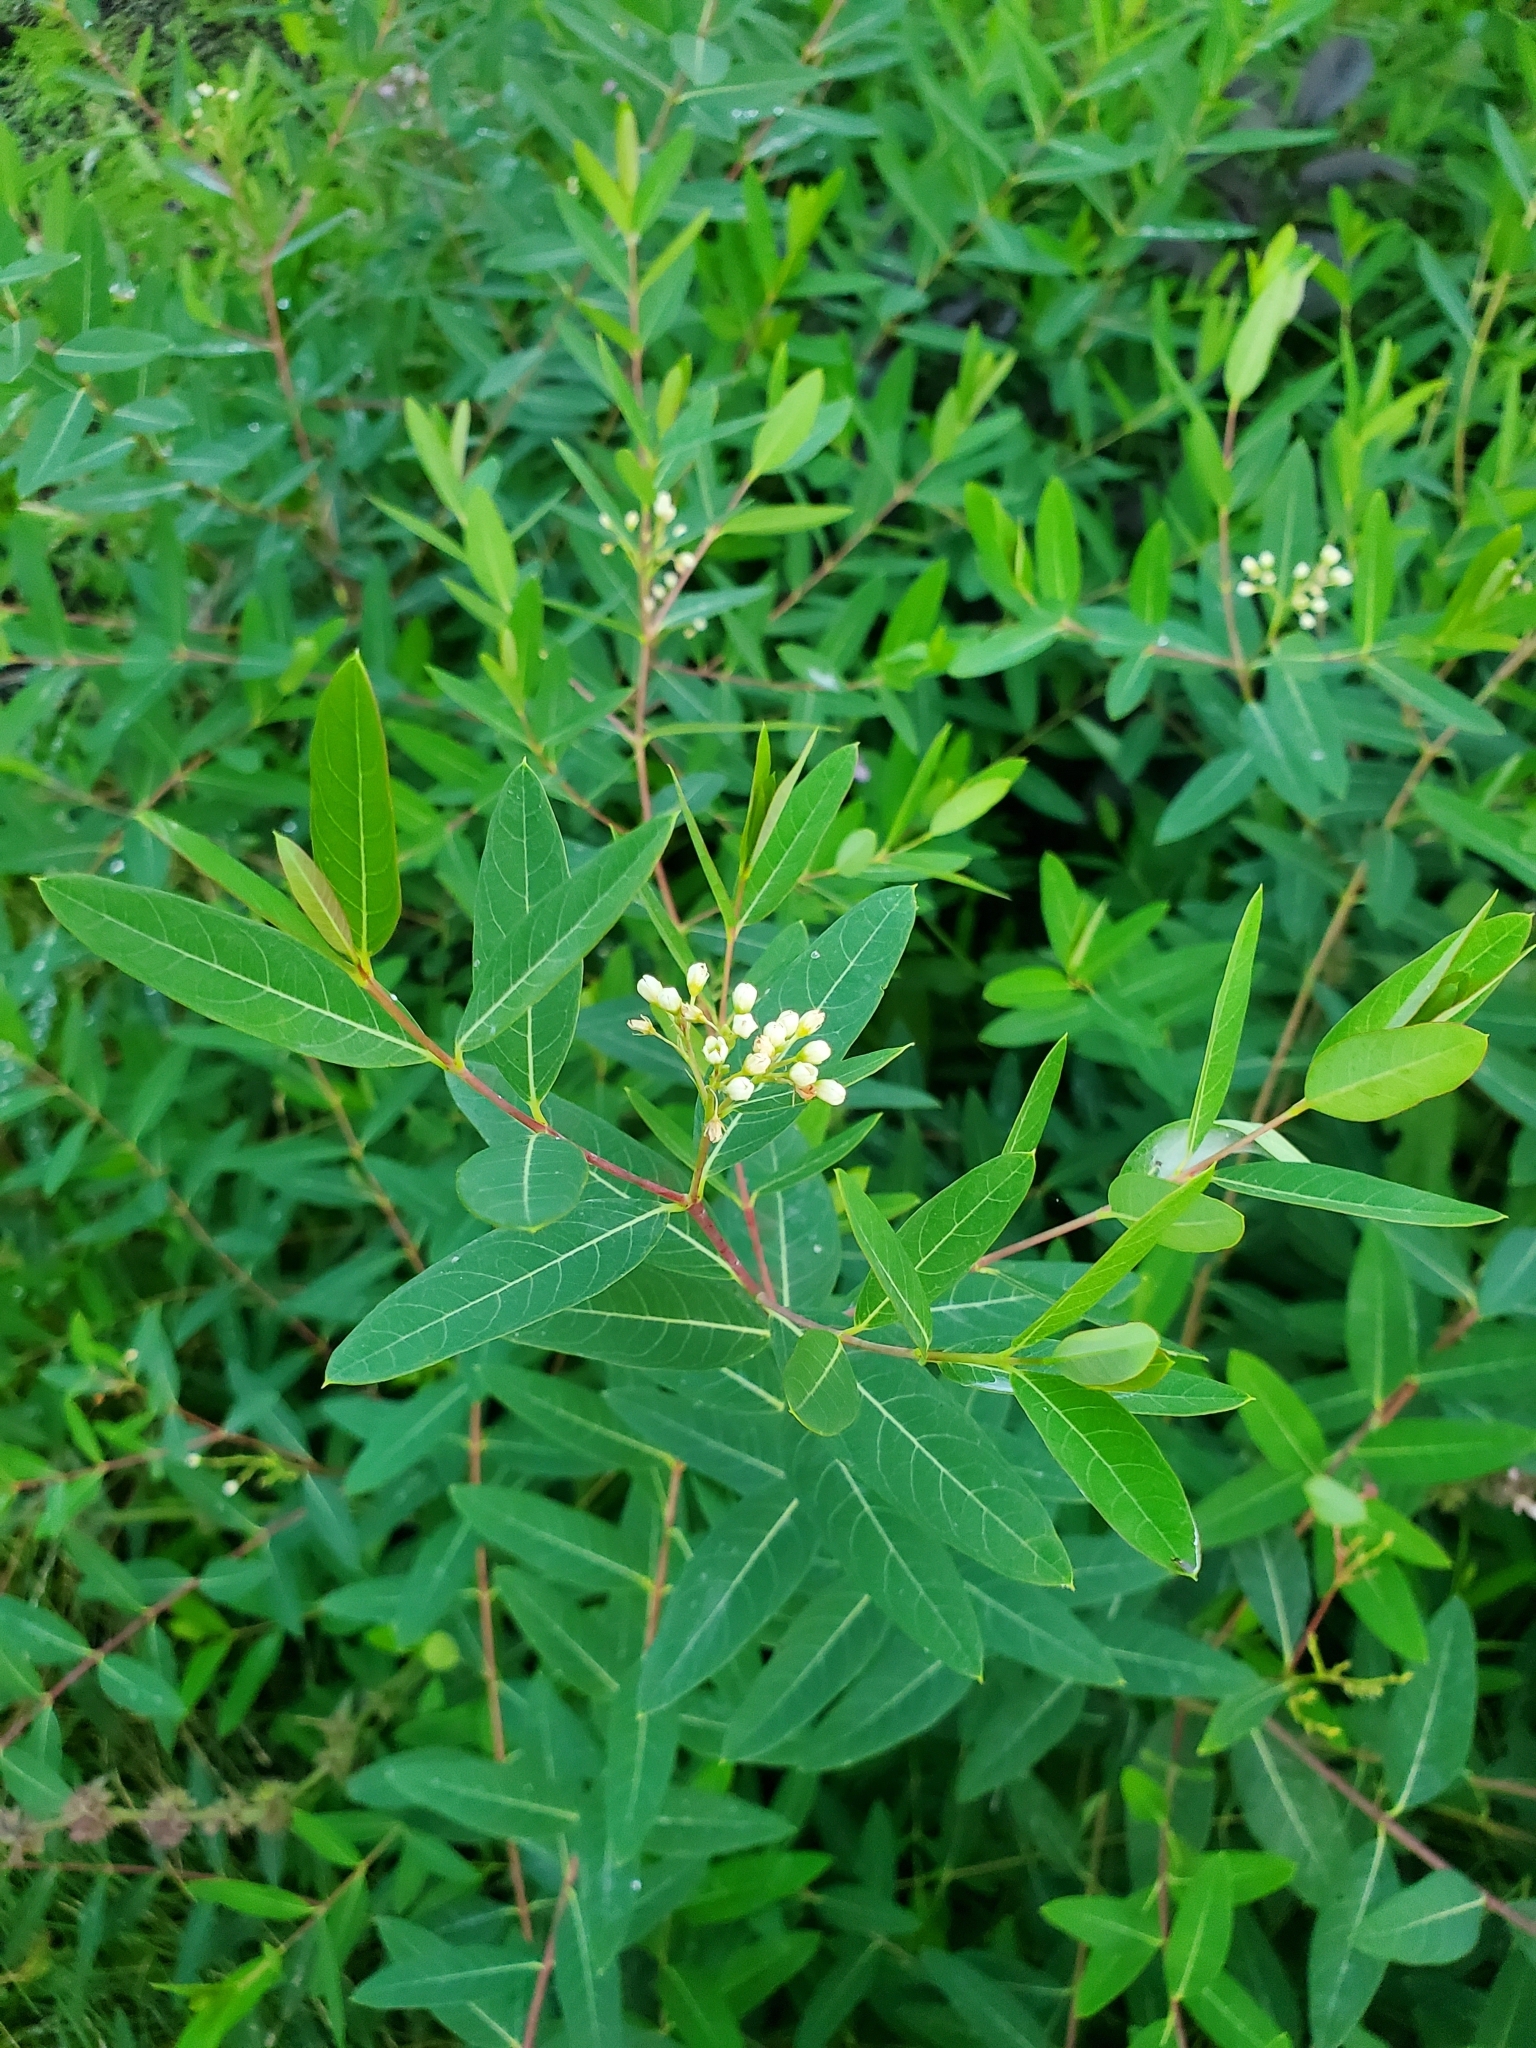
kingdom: Plantae
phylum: Tracheophyta
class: Magnoliopsida
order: Gentianales
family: Apocynaceae
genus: Apocynum
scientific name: Apocynum cannabinum
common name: Hemp dogbane
